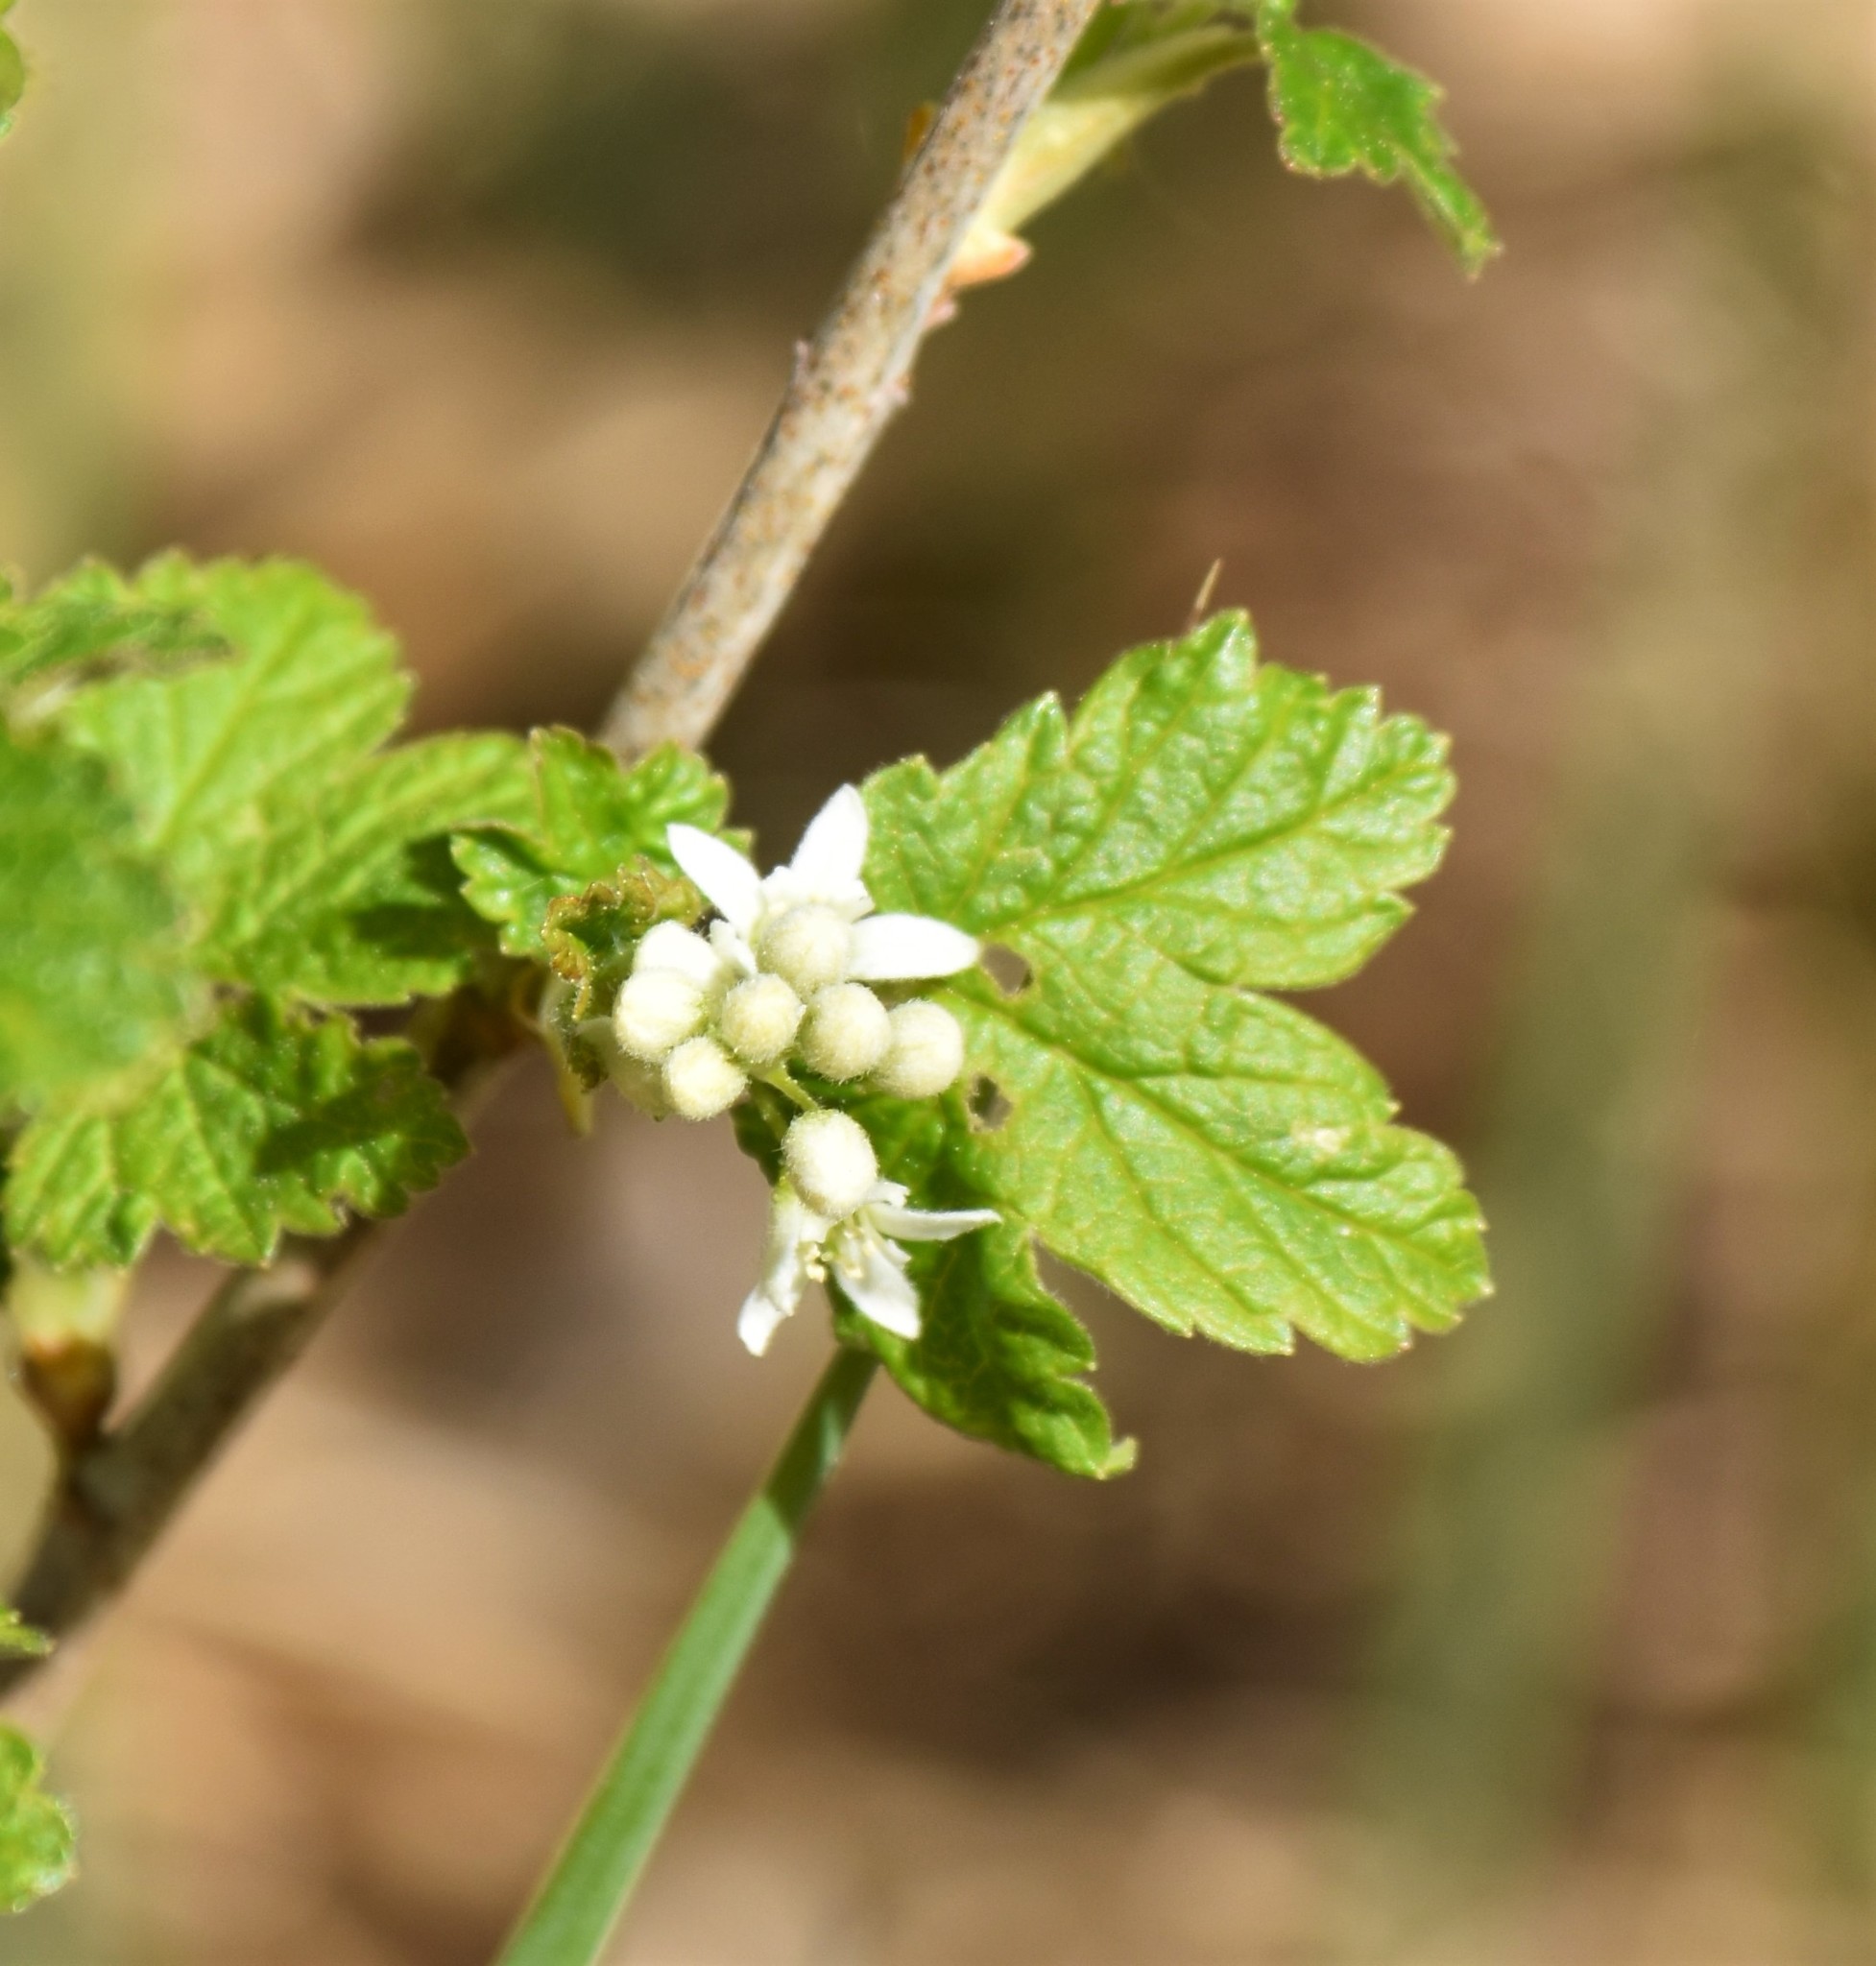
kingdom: Plantae
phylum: Tracheophyta
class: Magnoliopsida
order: Saxifragales
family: Grossulariaceae
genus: Ribes
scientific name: Ribes hudsonianum
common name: Northern black currant
